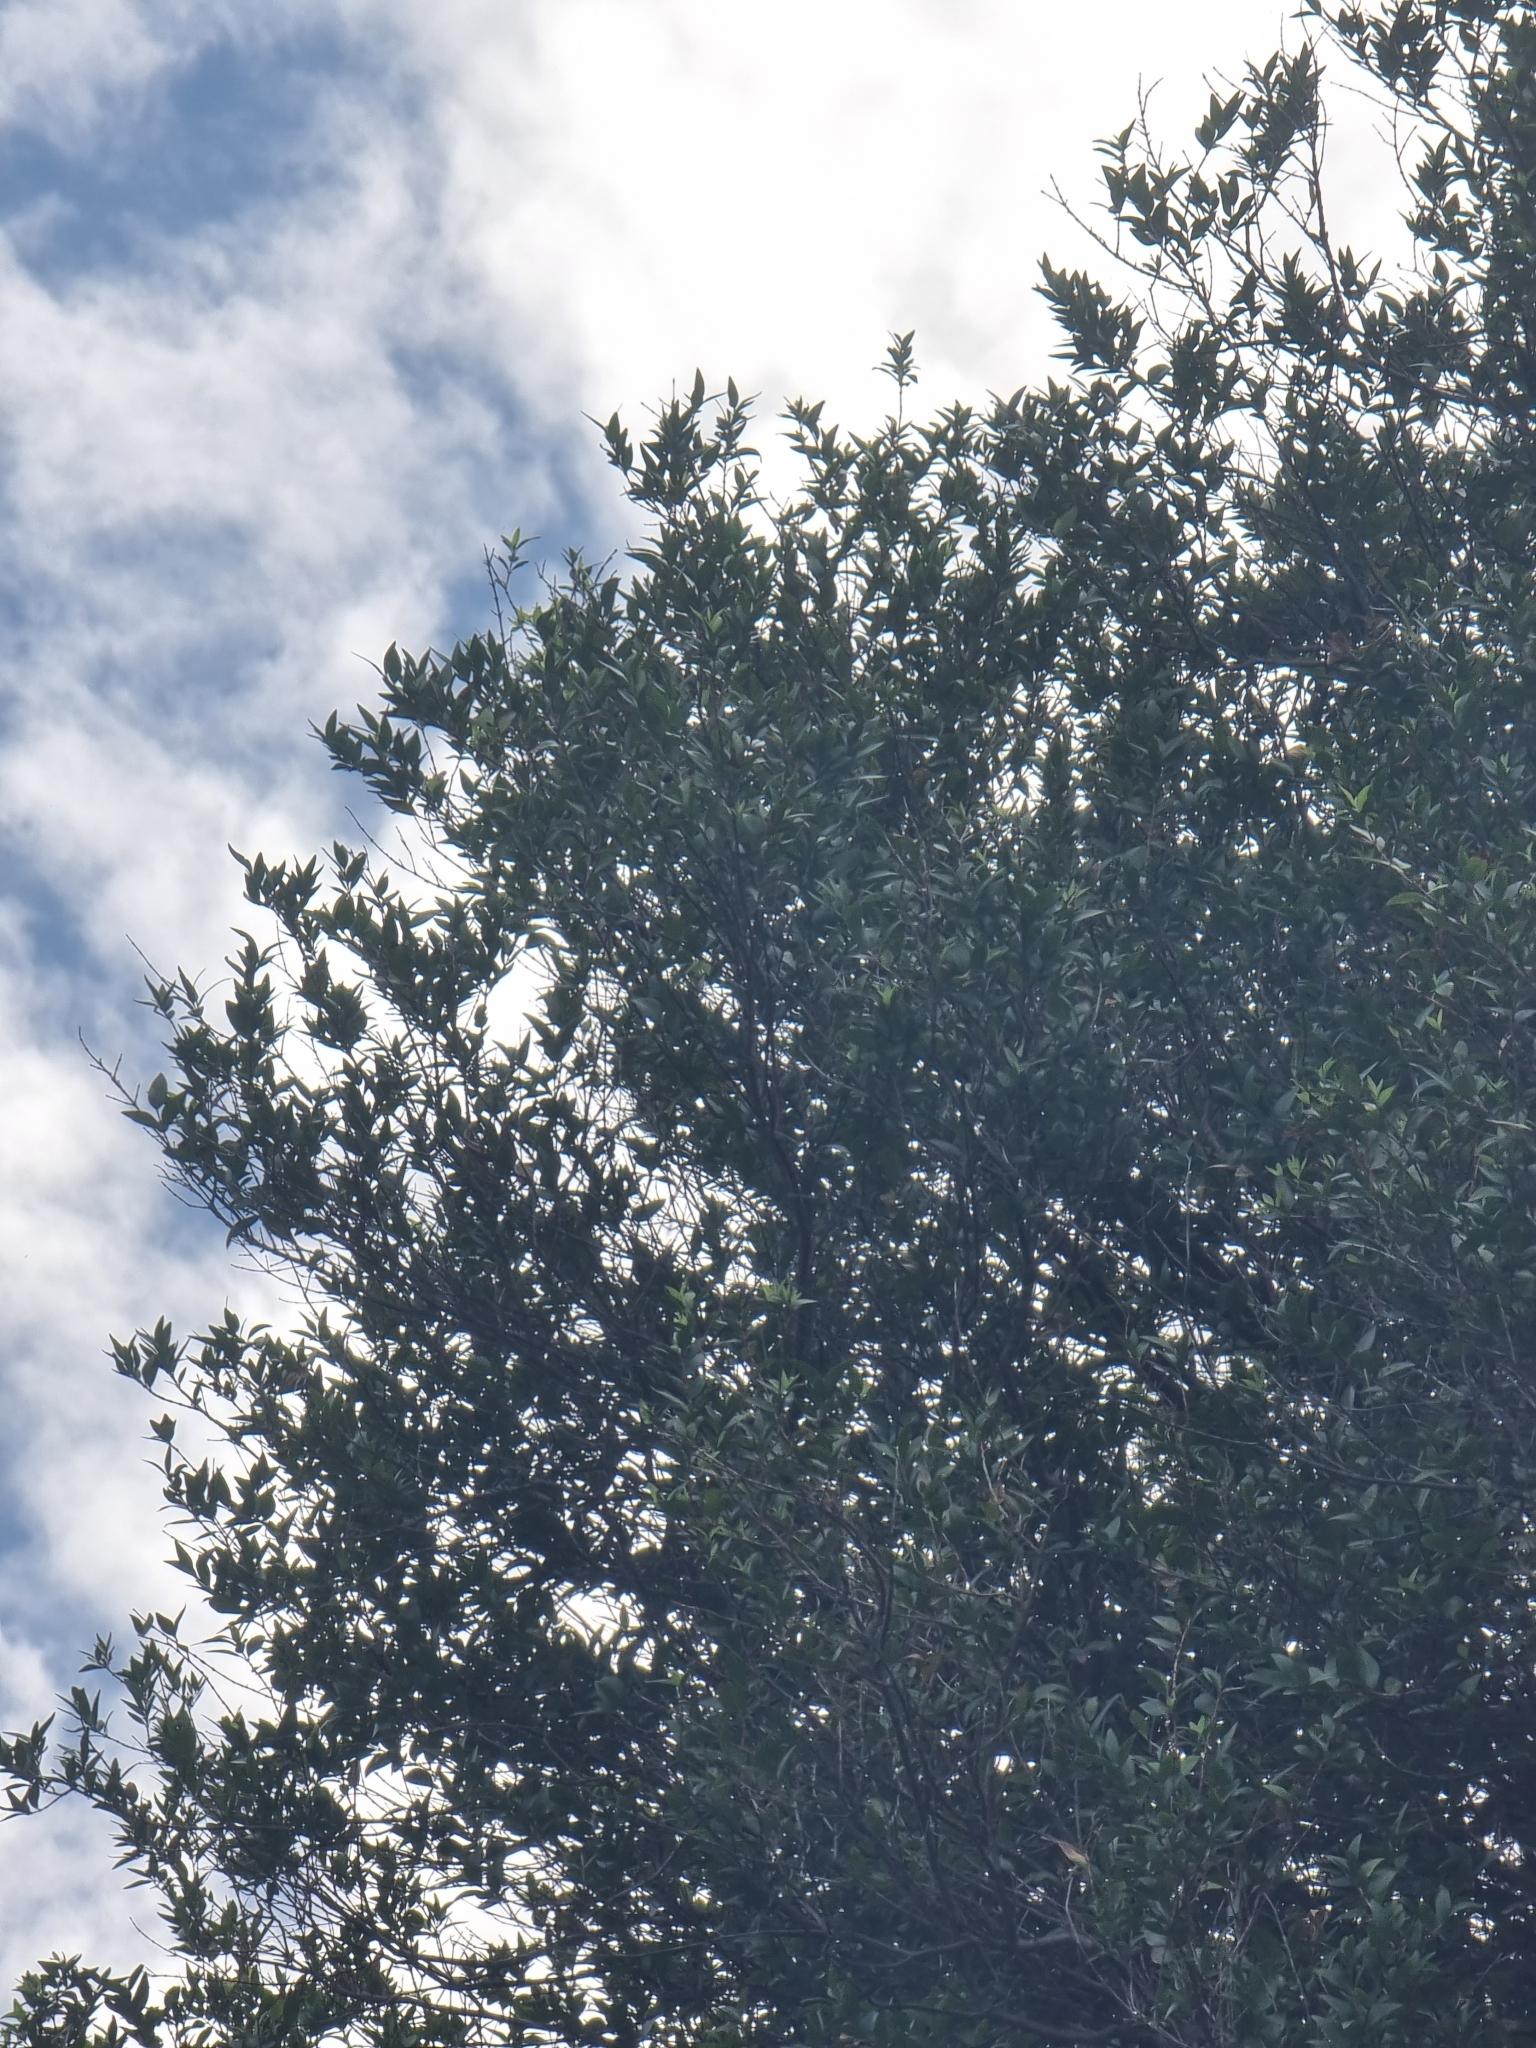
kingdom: Plantae
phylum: Tracheophyta
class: Magnoliopsida
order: Myrtales
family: Myrtaceae
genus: Myrtus
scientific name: Myrtus communis
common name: Myrtle
